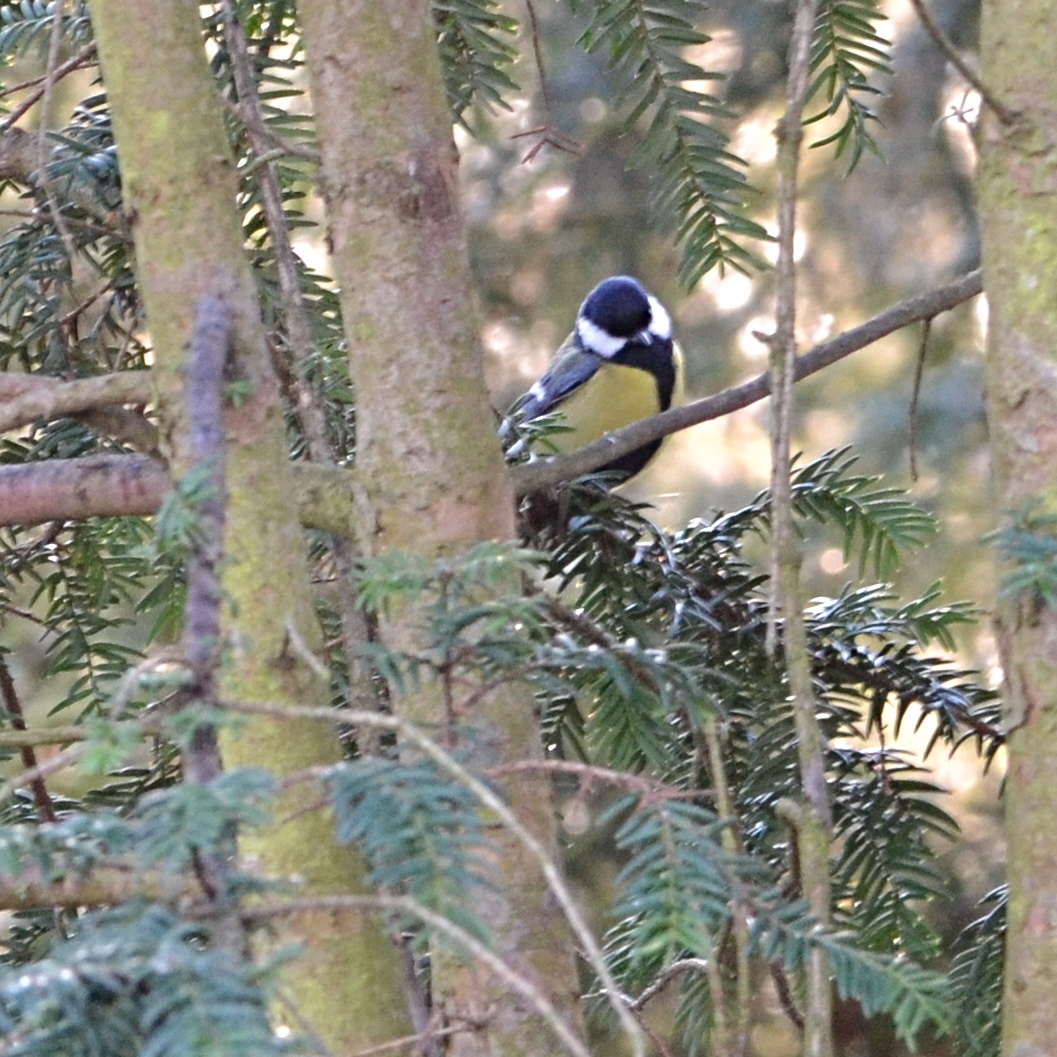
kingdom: Animalia
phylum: Chordata
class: Aves
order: Passeriformes
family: Paridae
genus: Parus
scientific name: Parus major
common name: Great tit
